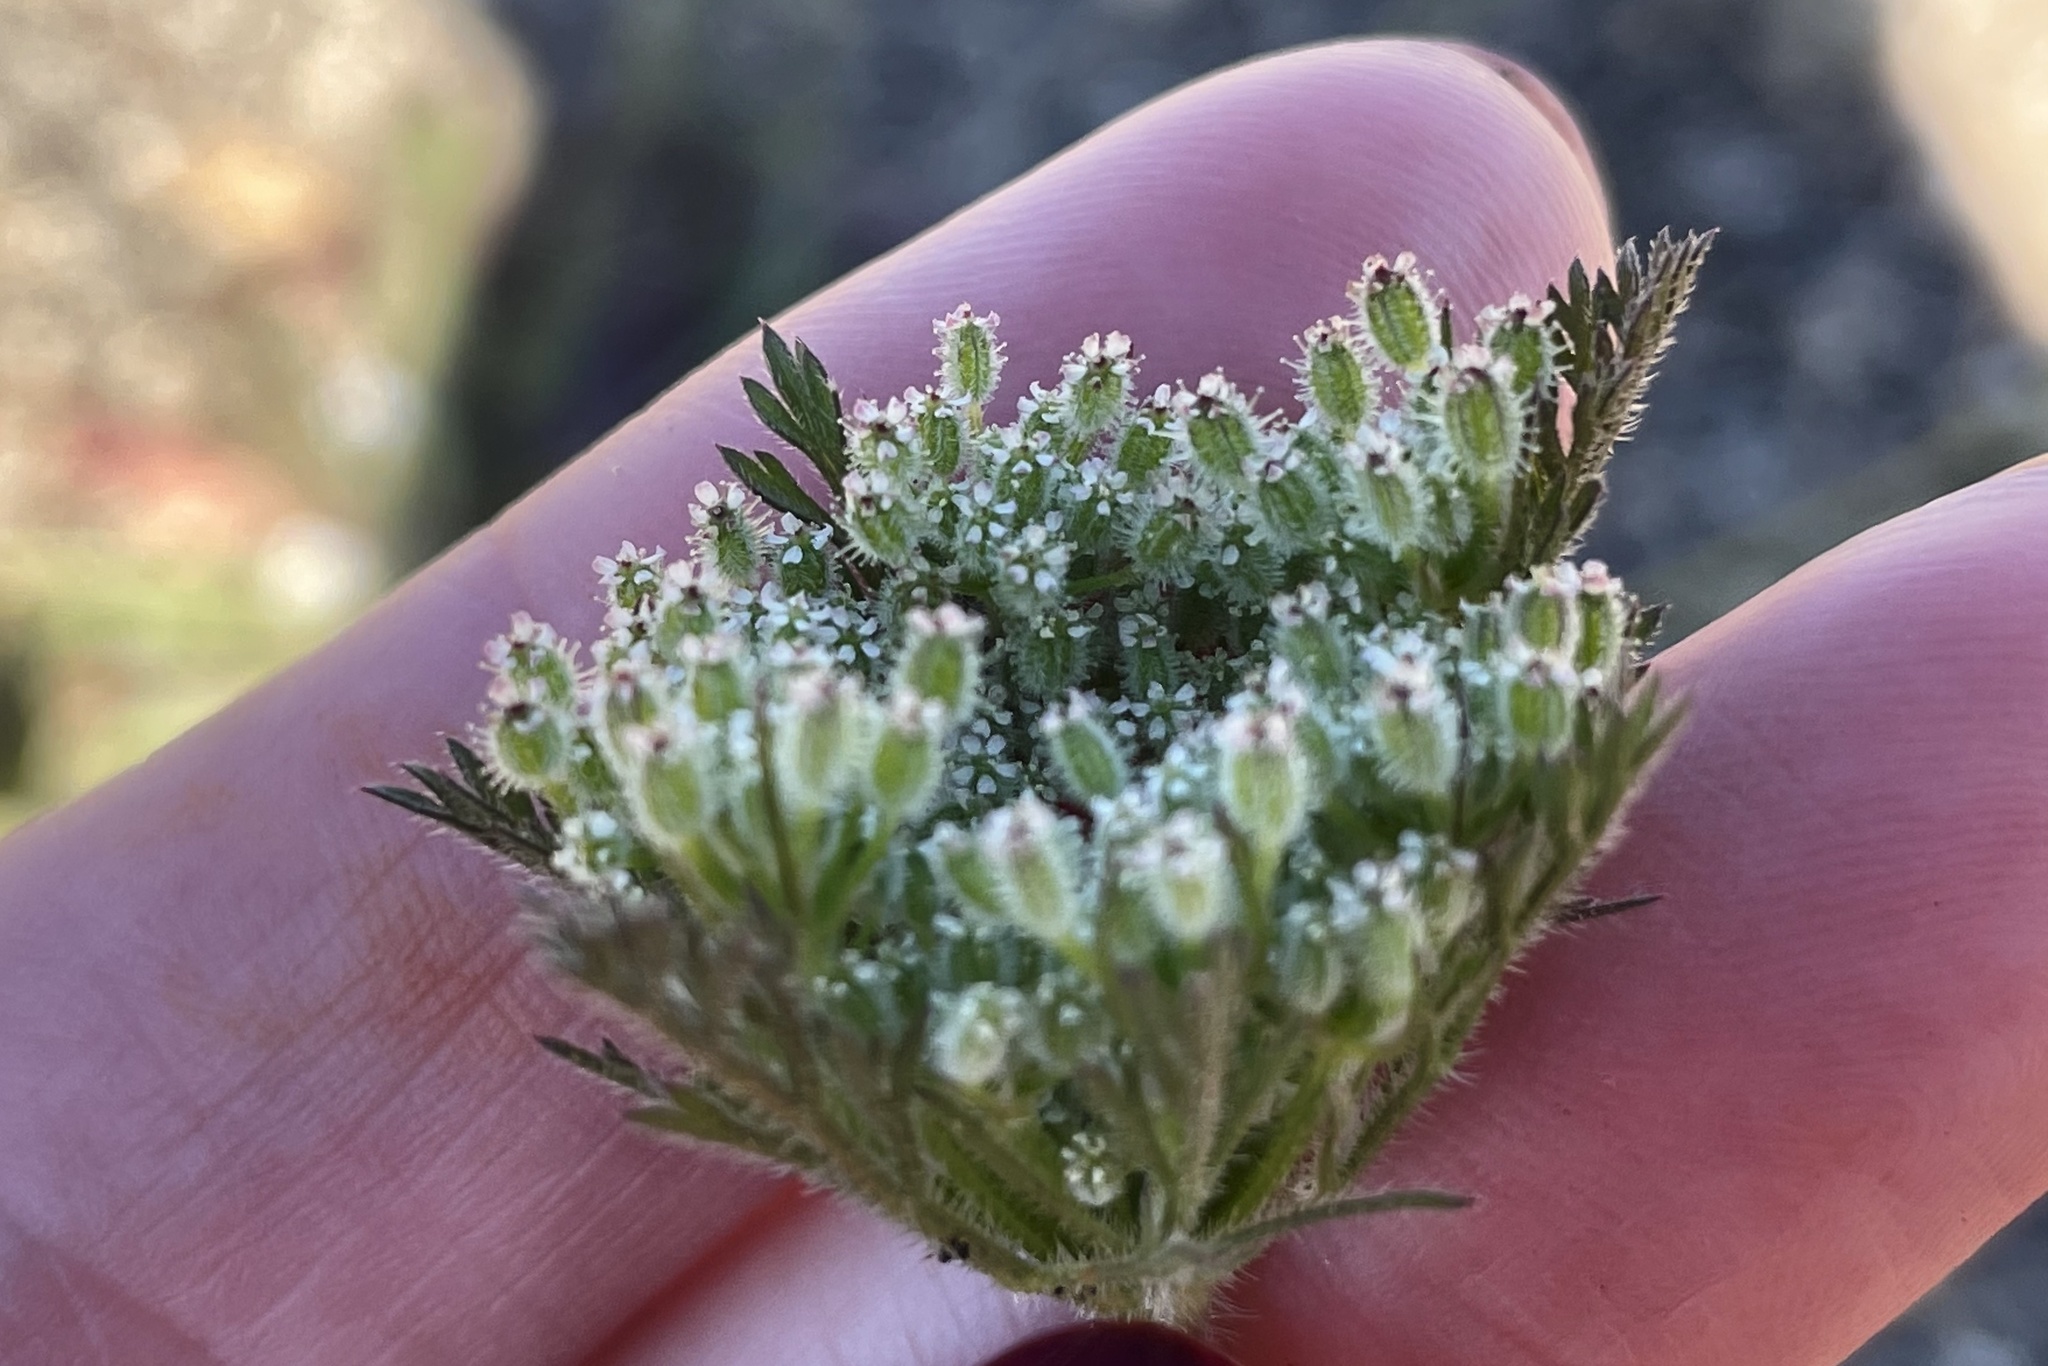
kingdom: Plantae
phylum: Tracheophyta
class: Magnoliopsida
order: Apiales
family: Apiaceae
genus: Daucus
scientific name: Daucus pusillus
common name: Southwest wild carrot
